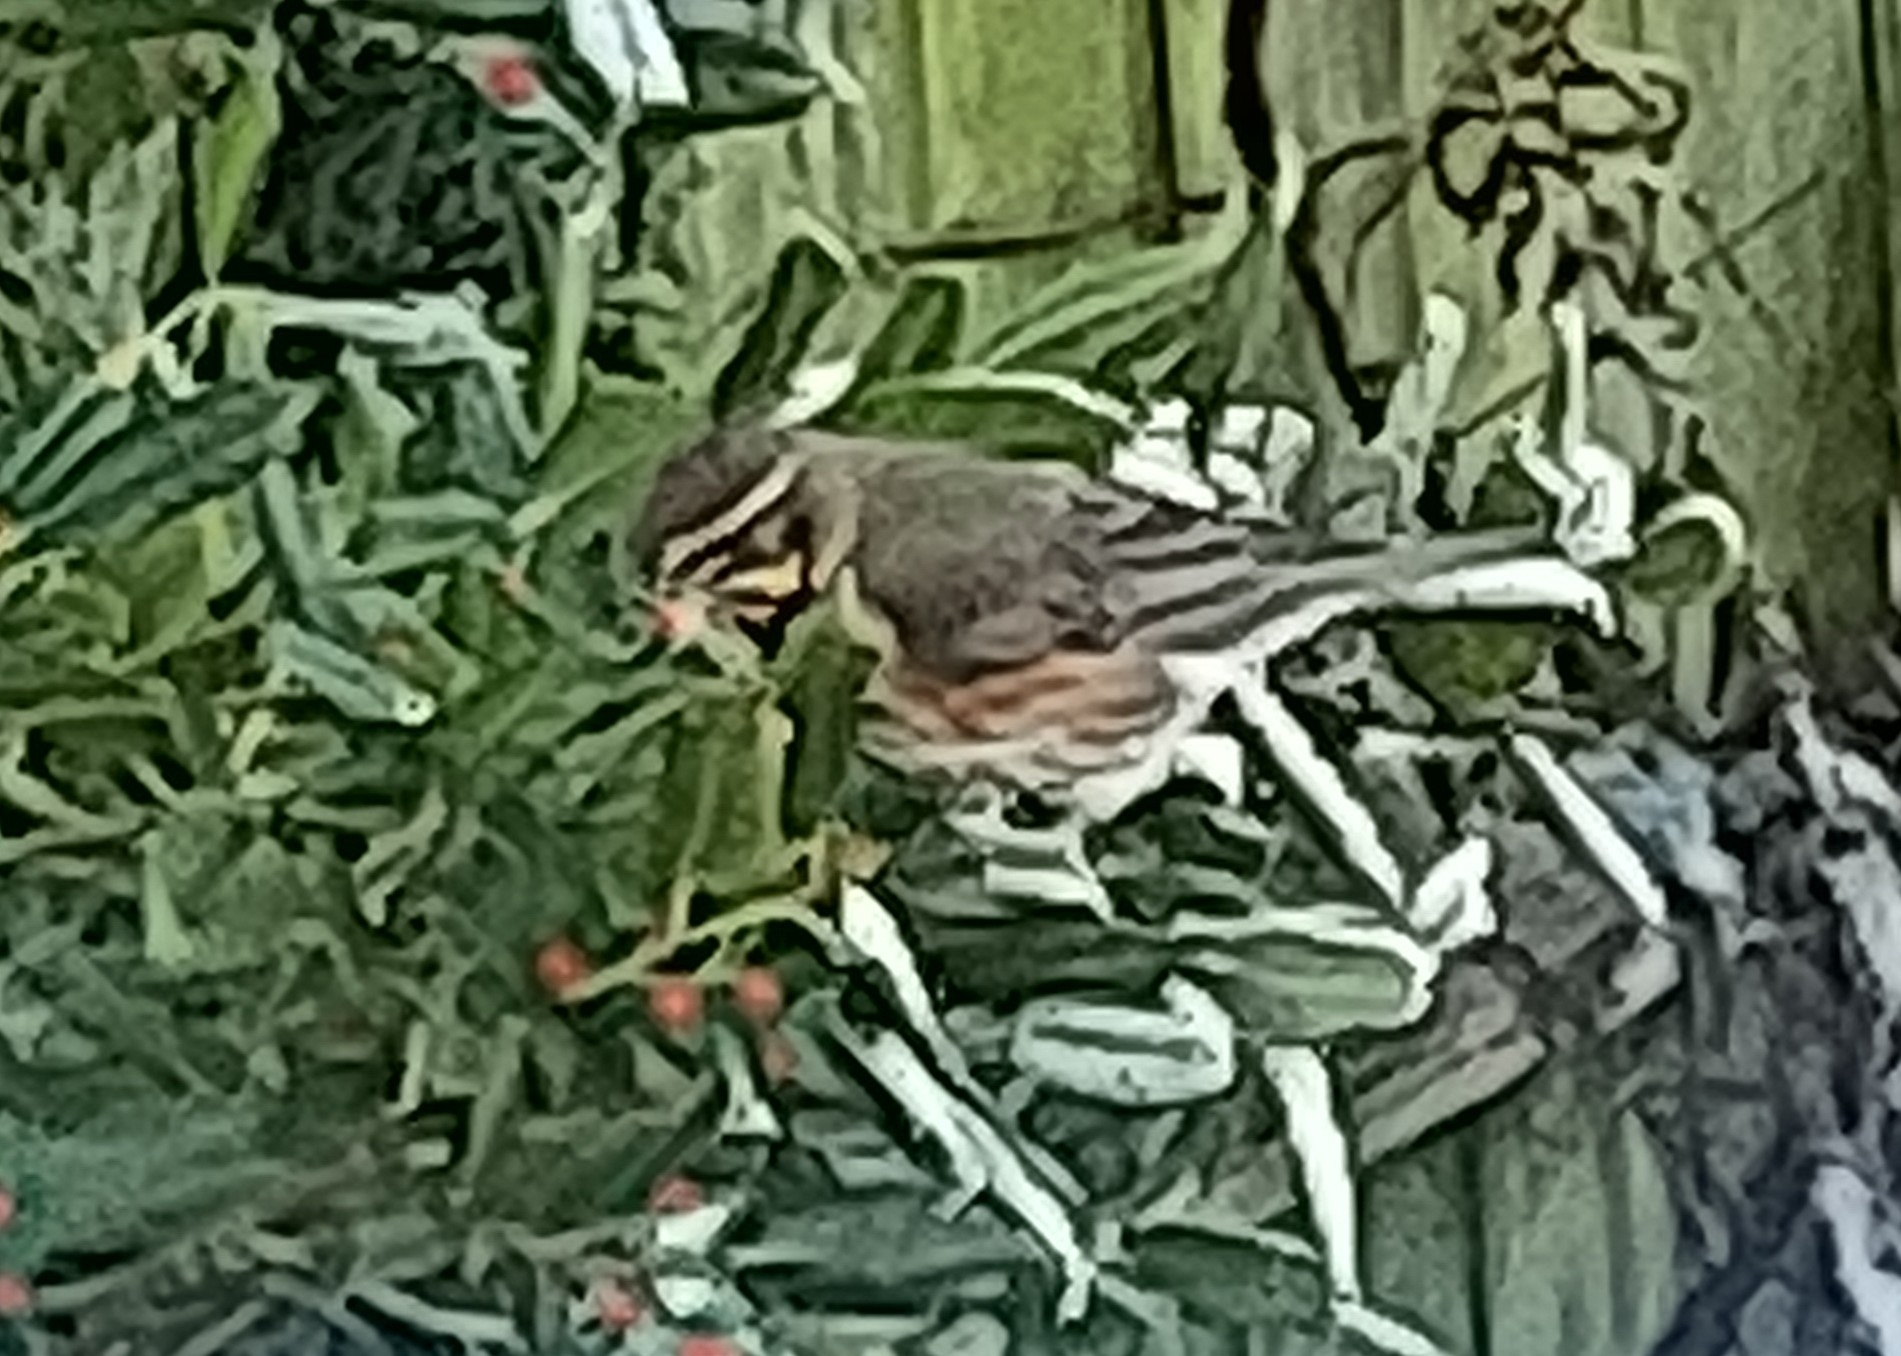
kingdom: Animalia
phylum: Chordata
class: Aves
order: Passeriformes
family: Turdidae
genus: Turdus
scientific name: Turdus iliacus
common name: Redwing
